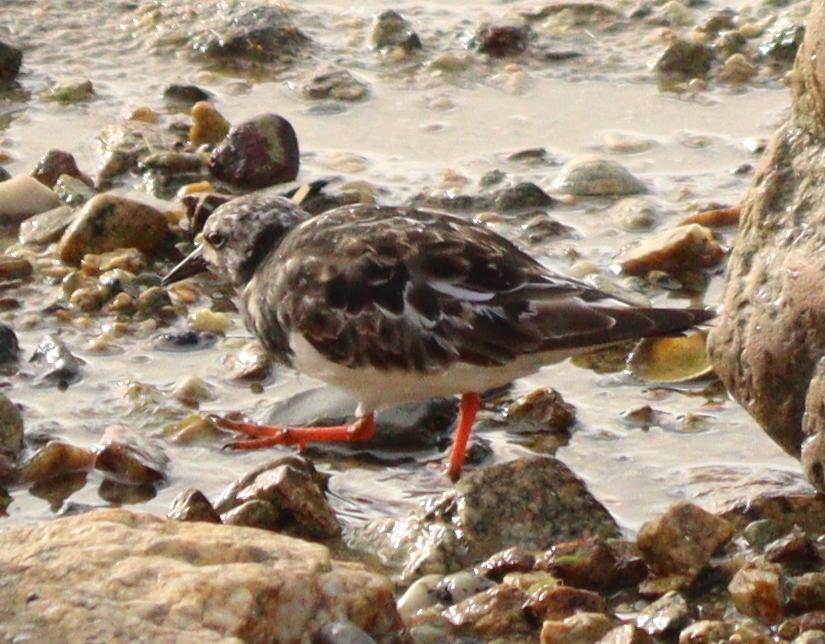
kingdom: Animalia
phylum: Chordata
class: Aves
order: Charadriiformes
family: Scolopacidae
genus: Arenaria
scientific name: Arenaria interpres
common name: Ruddy turnstone
